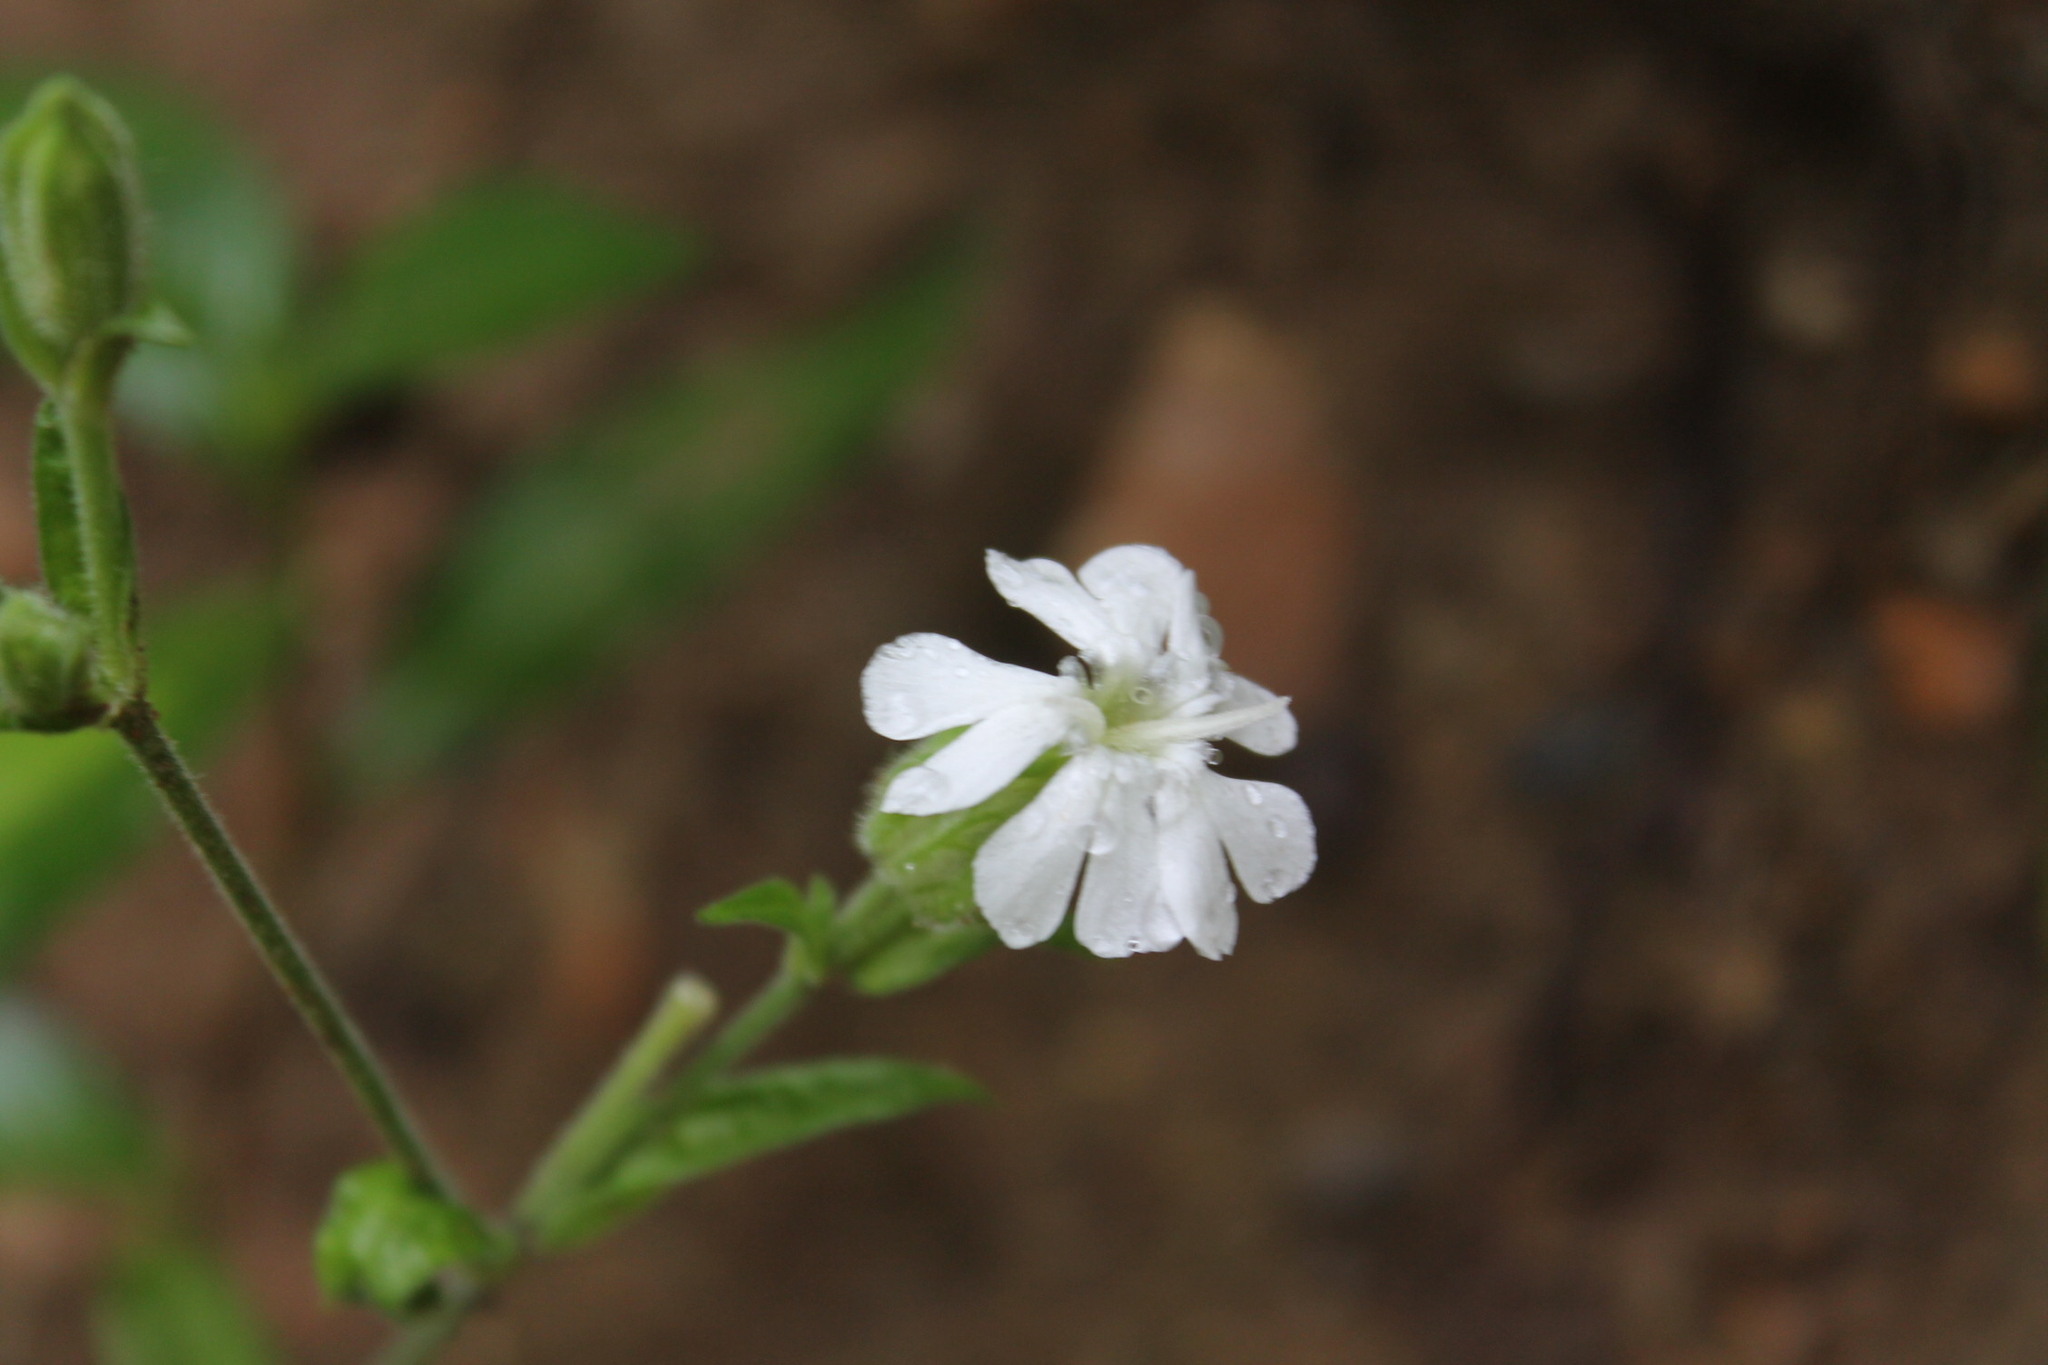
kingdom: Plantae
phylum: Tracheophyta
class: Magnoliopsida
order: Caryophyllales
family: Caryophyllaceae
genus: Silene
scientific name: Silene latifolia
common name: White campion
